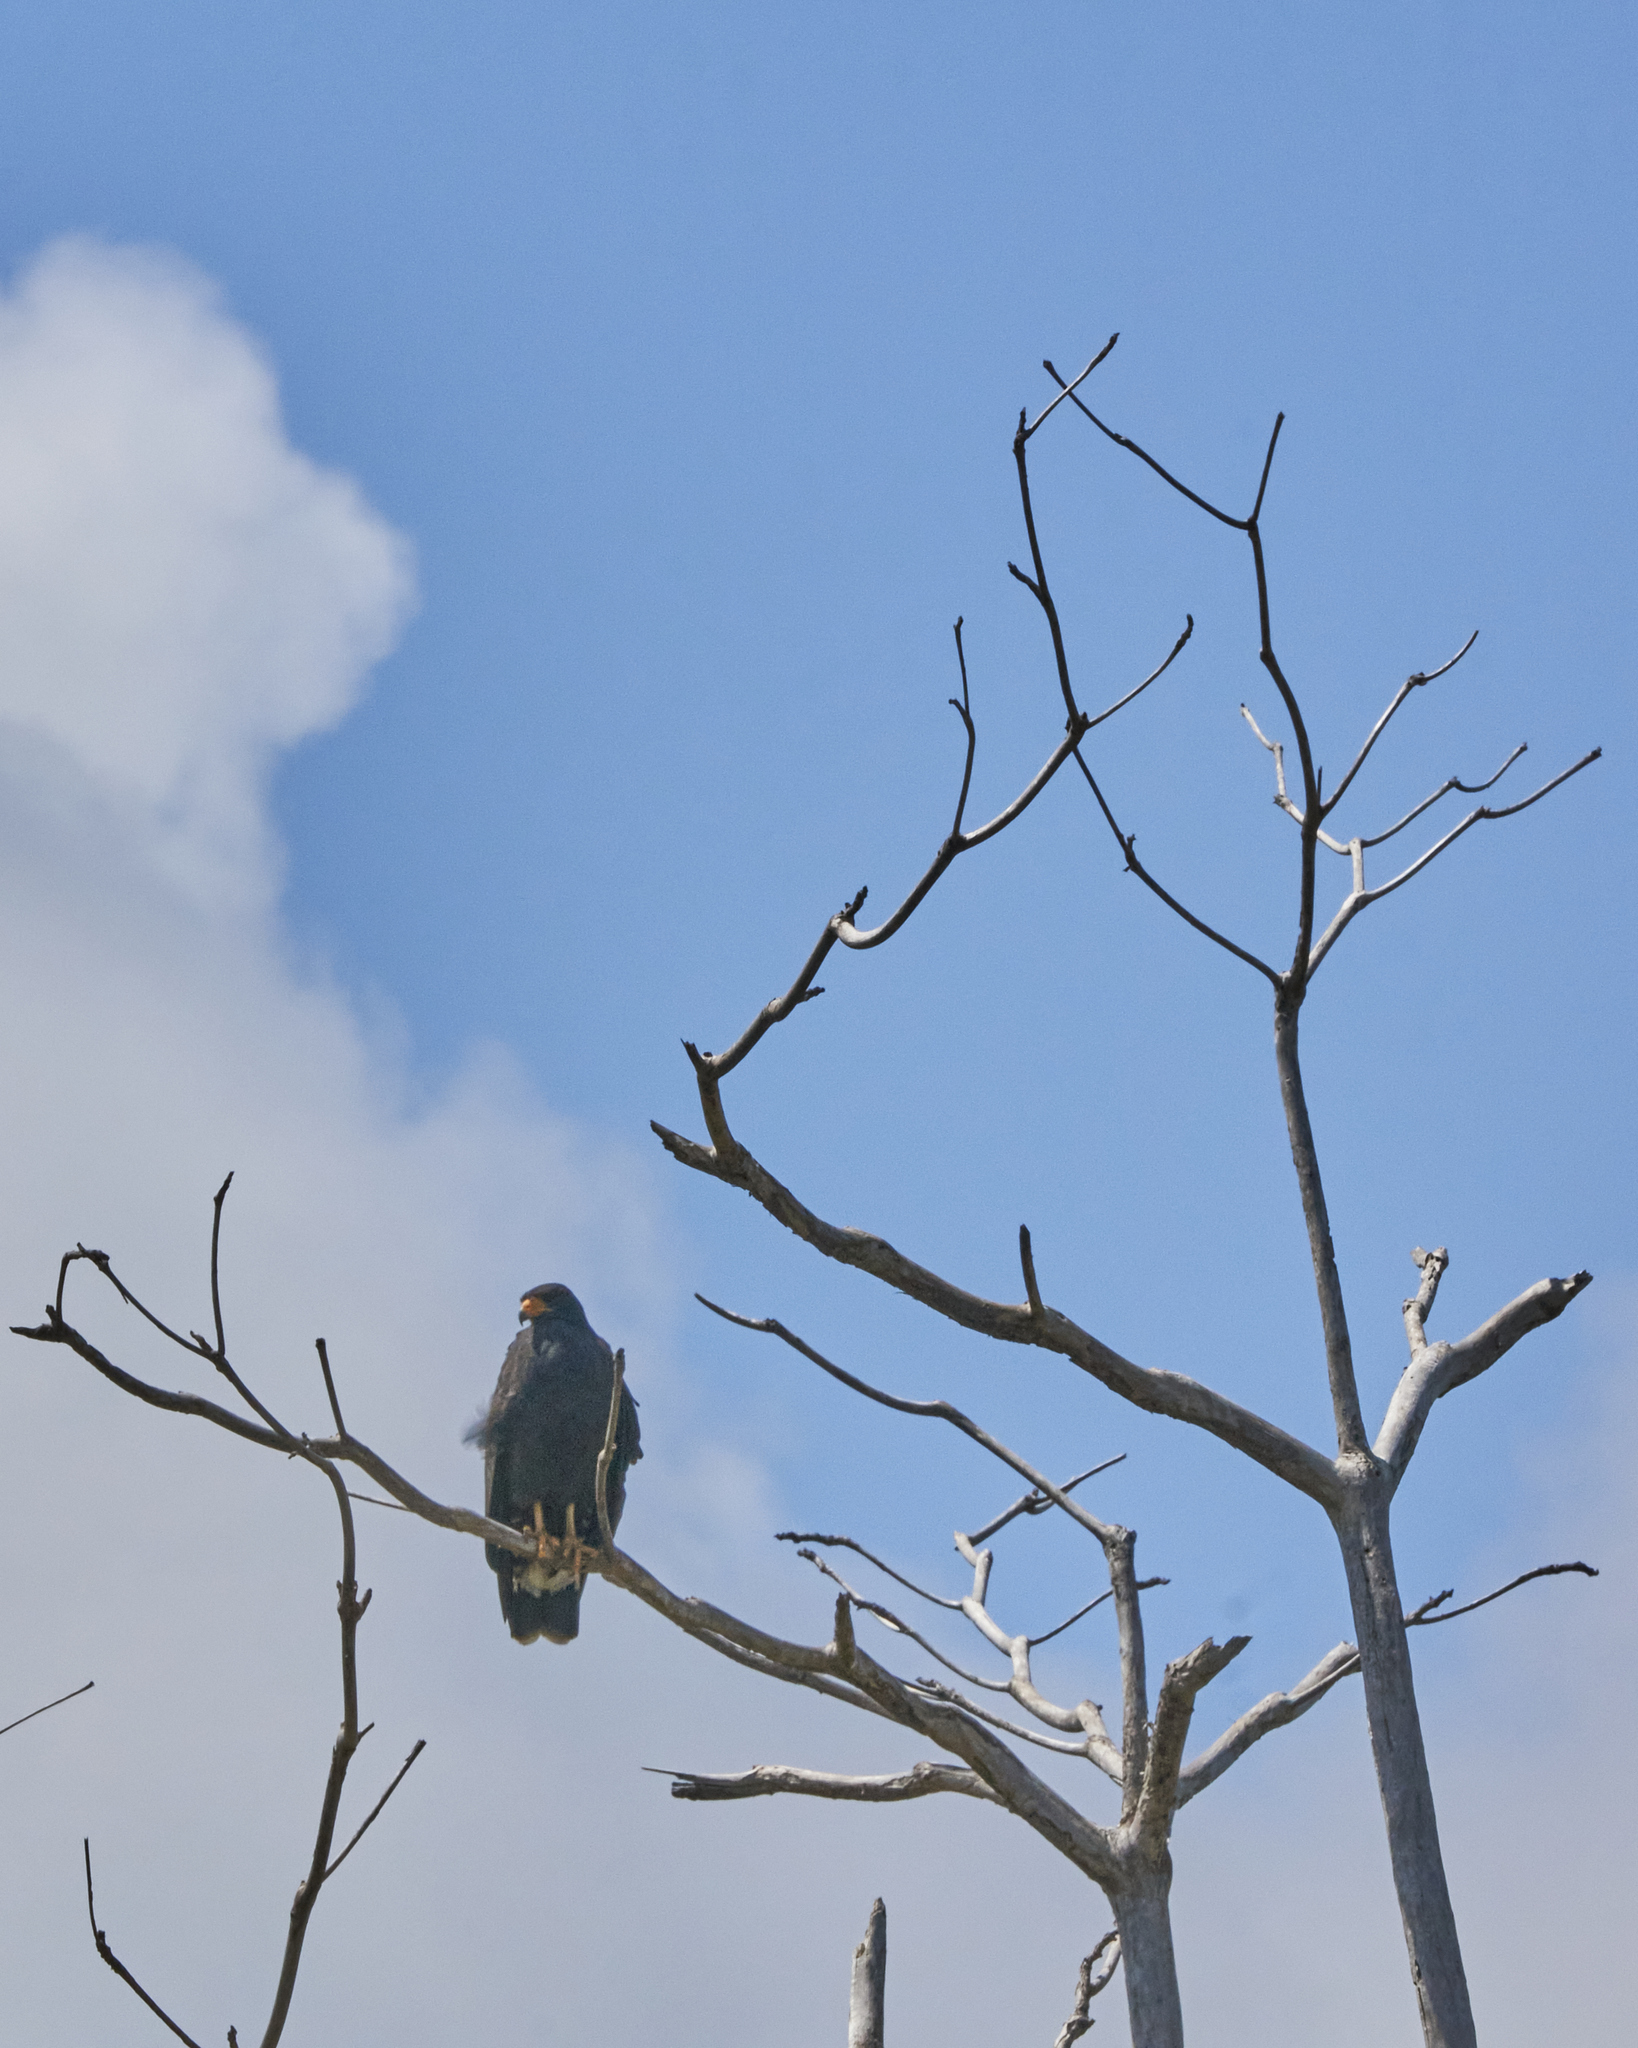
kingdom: Animalia
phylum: Chordata
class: Aves
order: Accipitriformes
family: Accipitridae
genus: Buteogallus
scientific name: Buteogallus anthracinus
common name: Common black hawk
